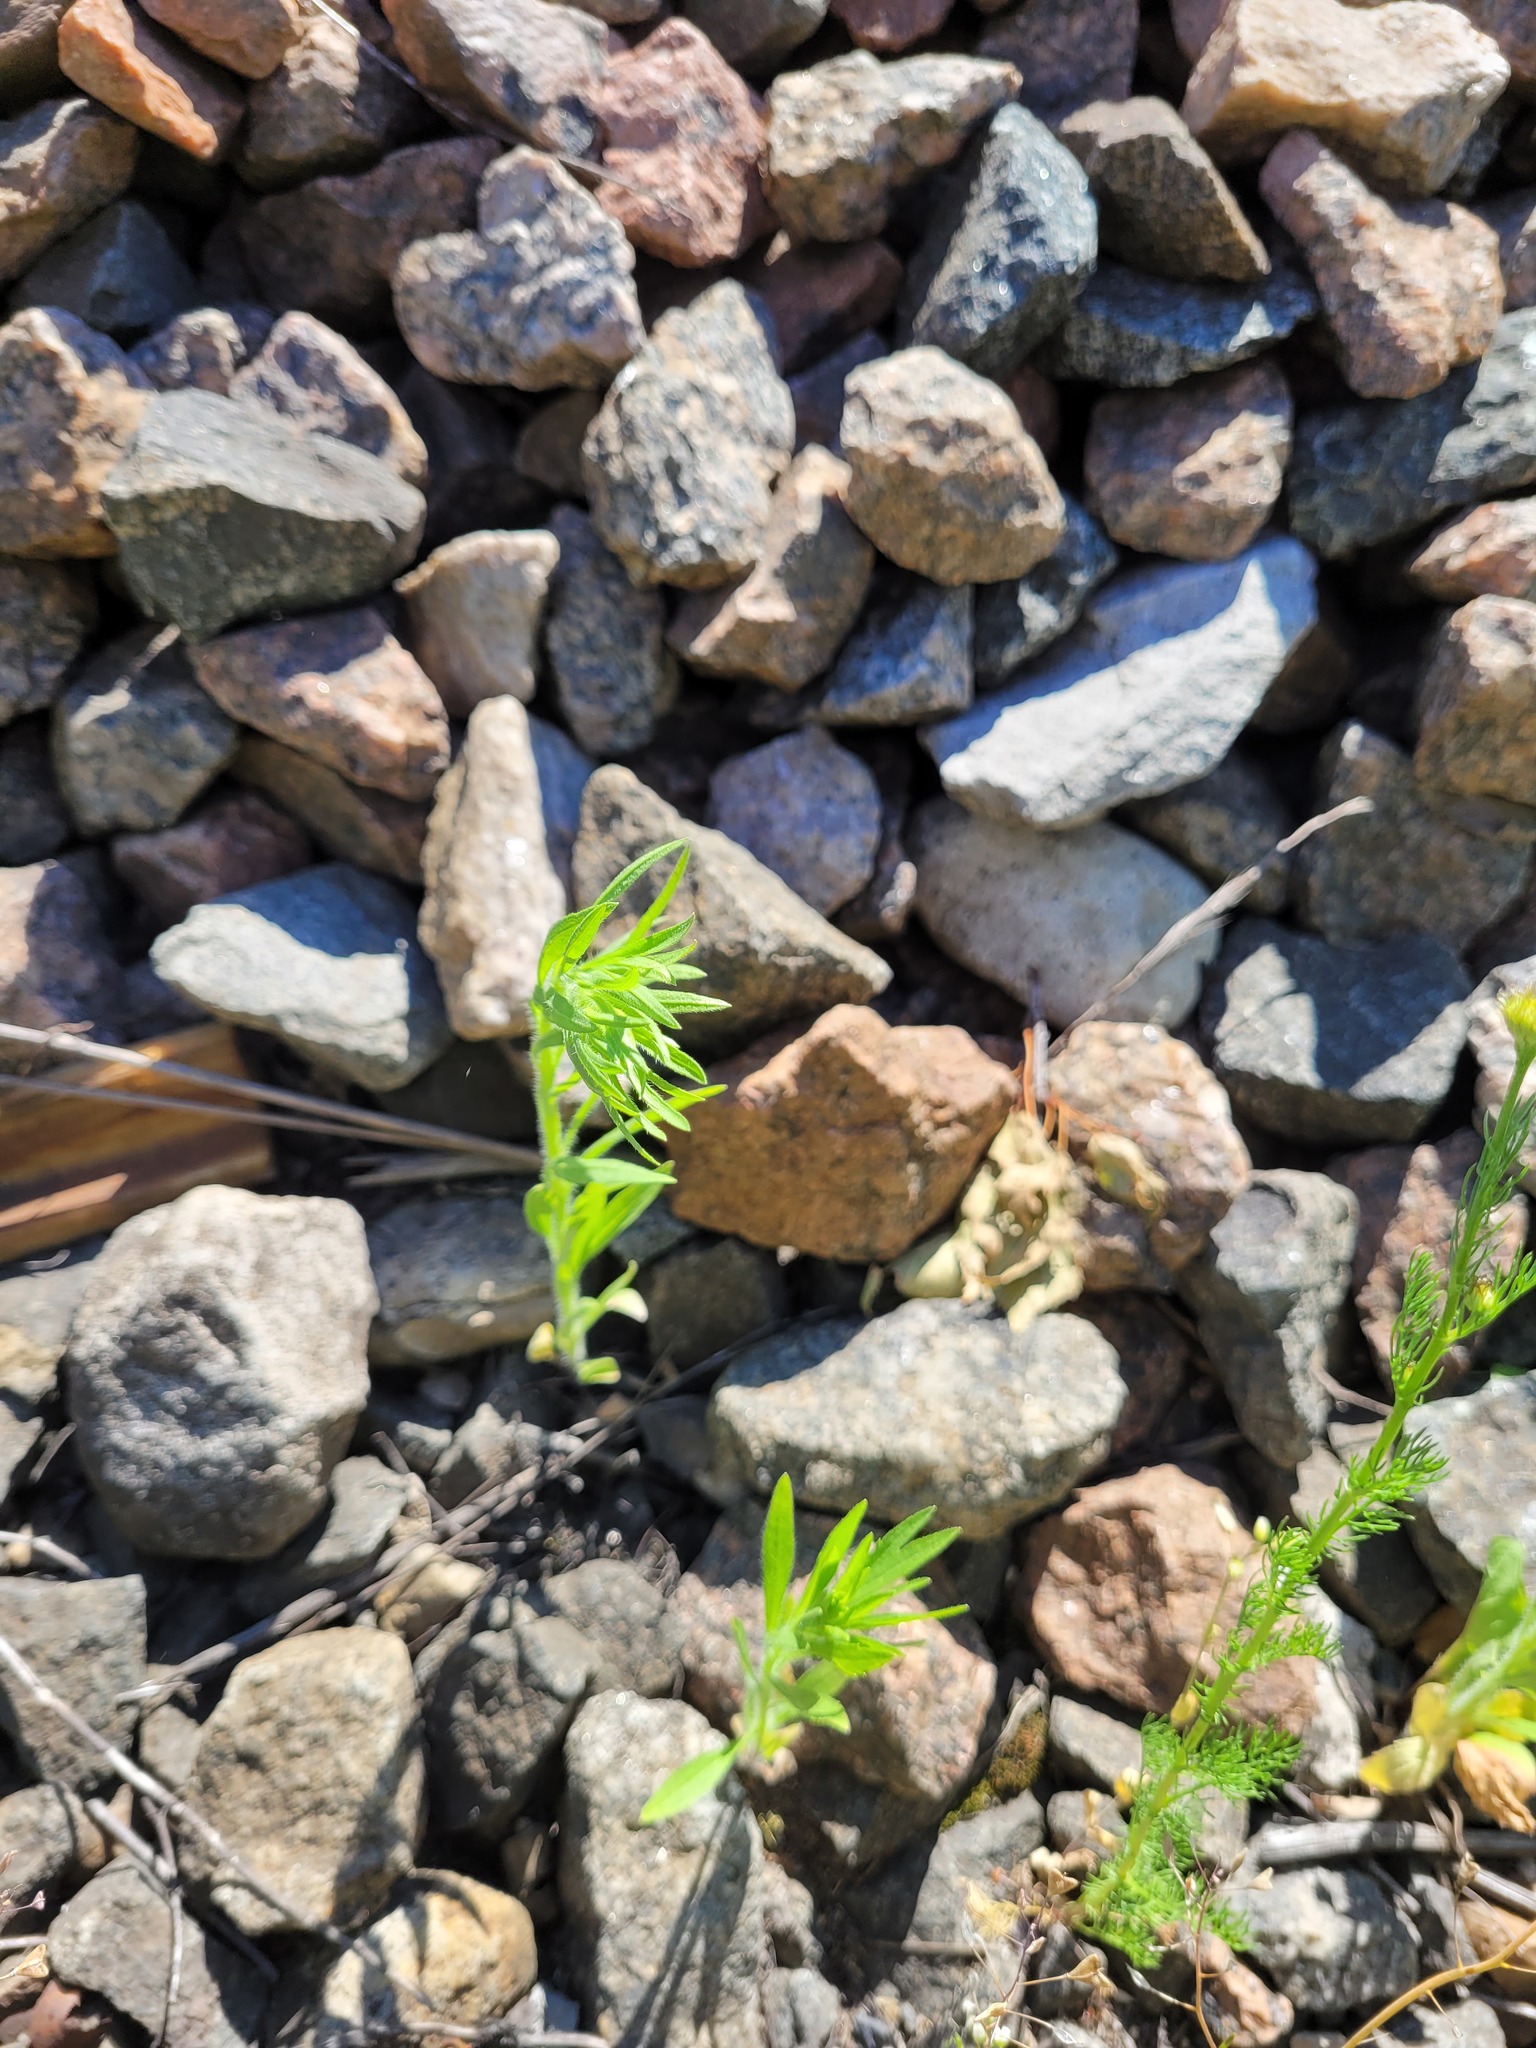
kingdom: Plantae
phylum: Tracheophyta
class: Magnoliopsida
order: Asterales
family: Asteraceae
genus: Erigeron
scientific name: Erigeron canadensis
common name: Canadian fleabane
